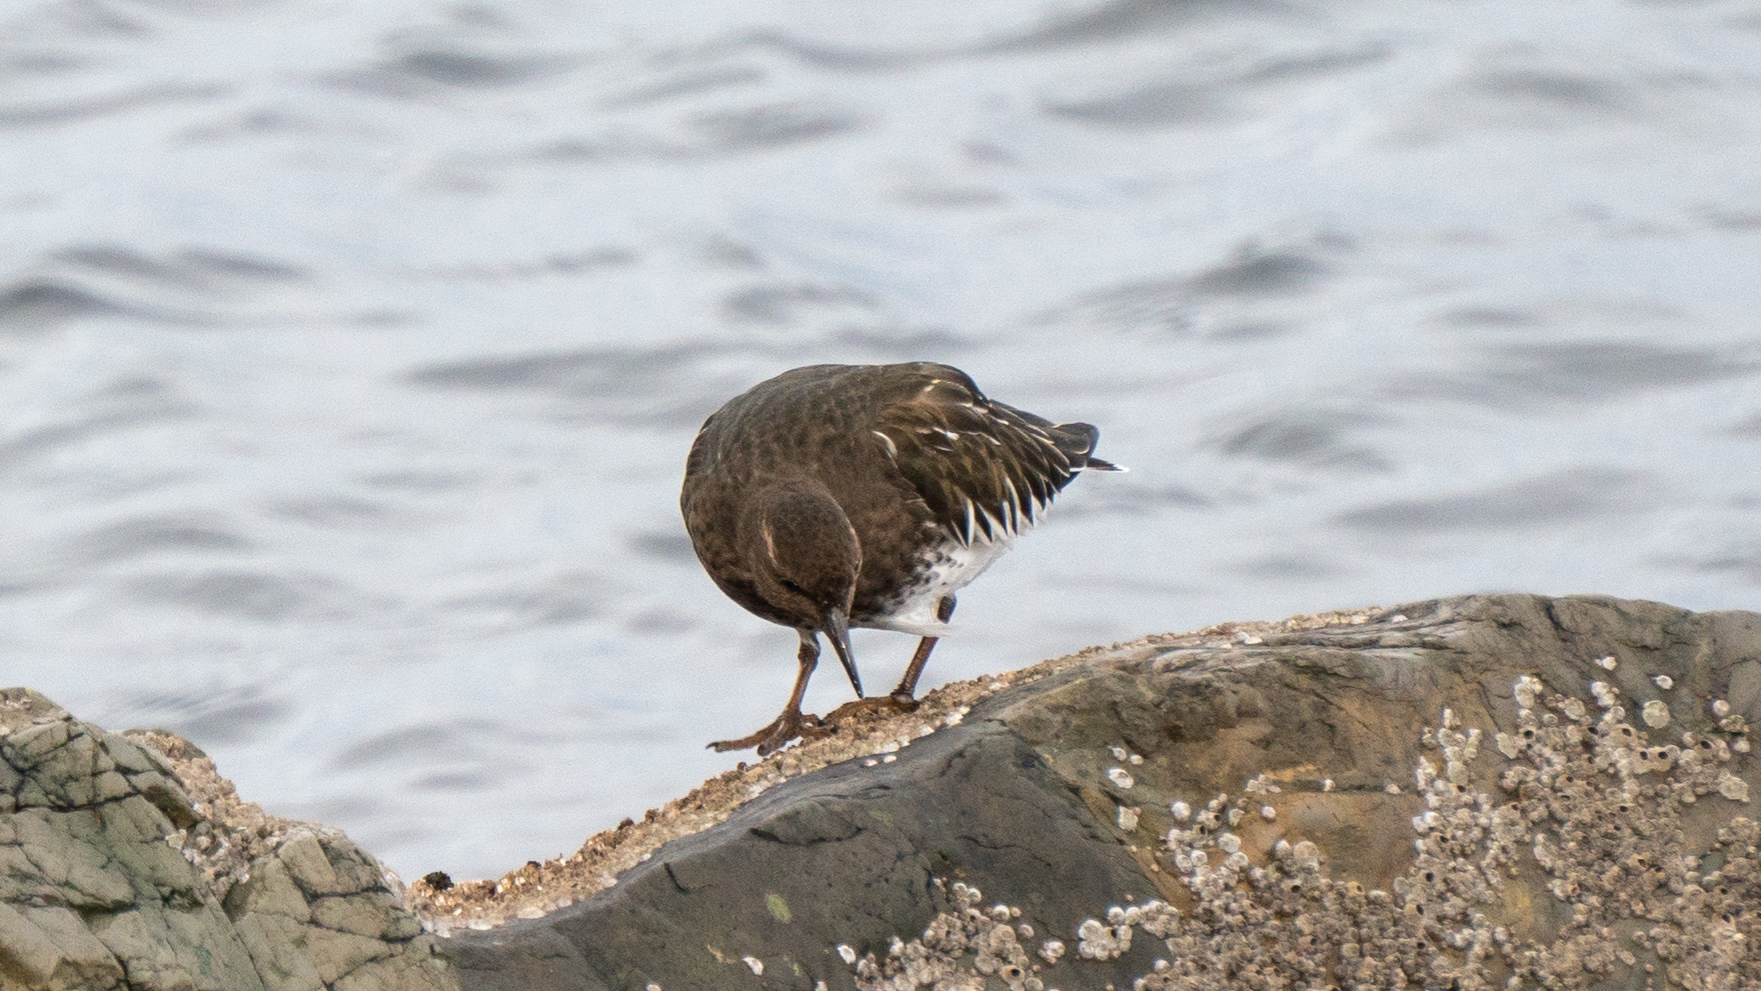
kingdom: Animalia
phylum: Chordata
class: Aves
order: Charadriiformes
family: Scolopacidae
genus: Arenaria
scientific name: Arenaria melanocephala
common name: Black turnstone
